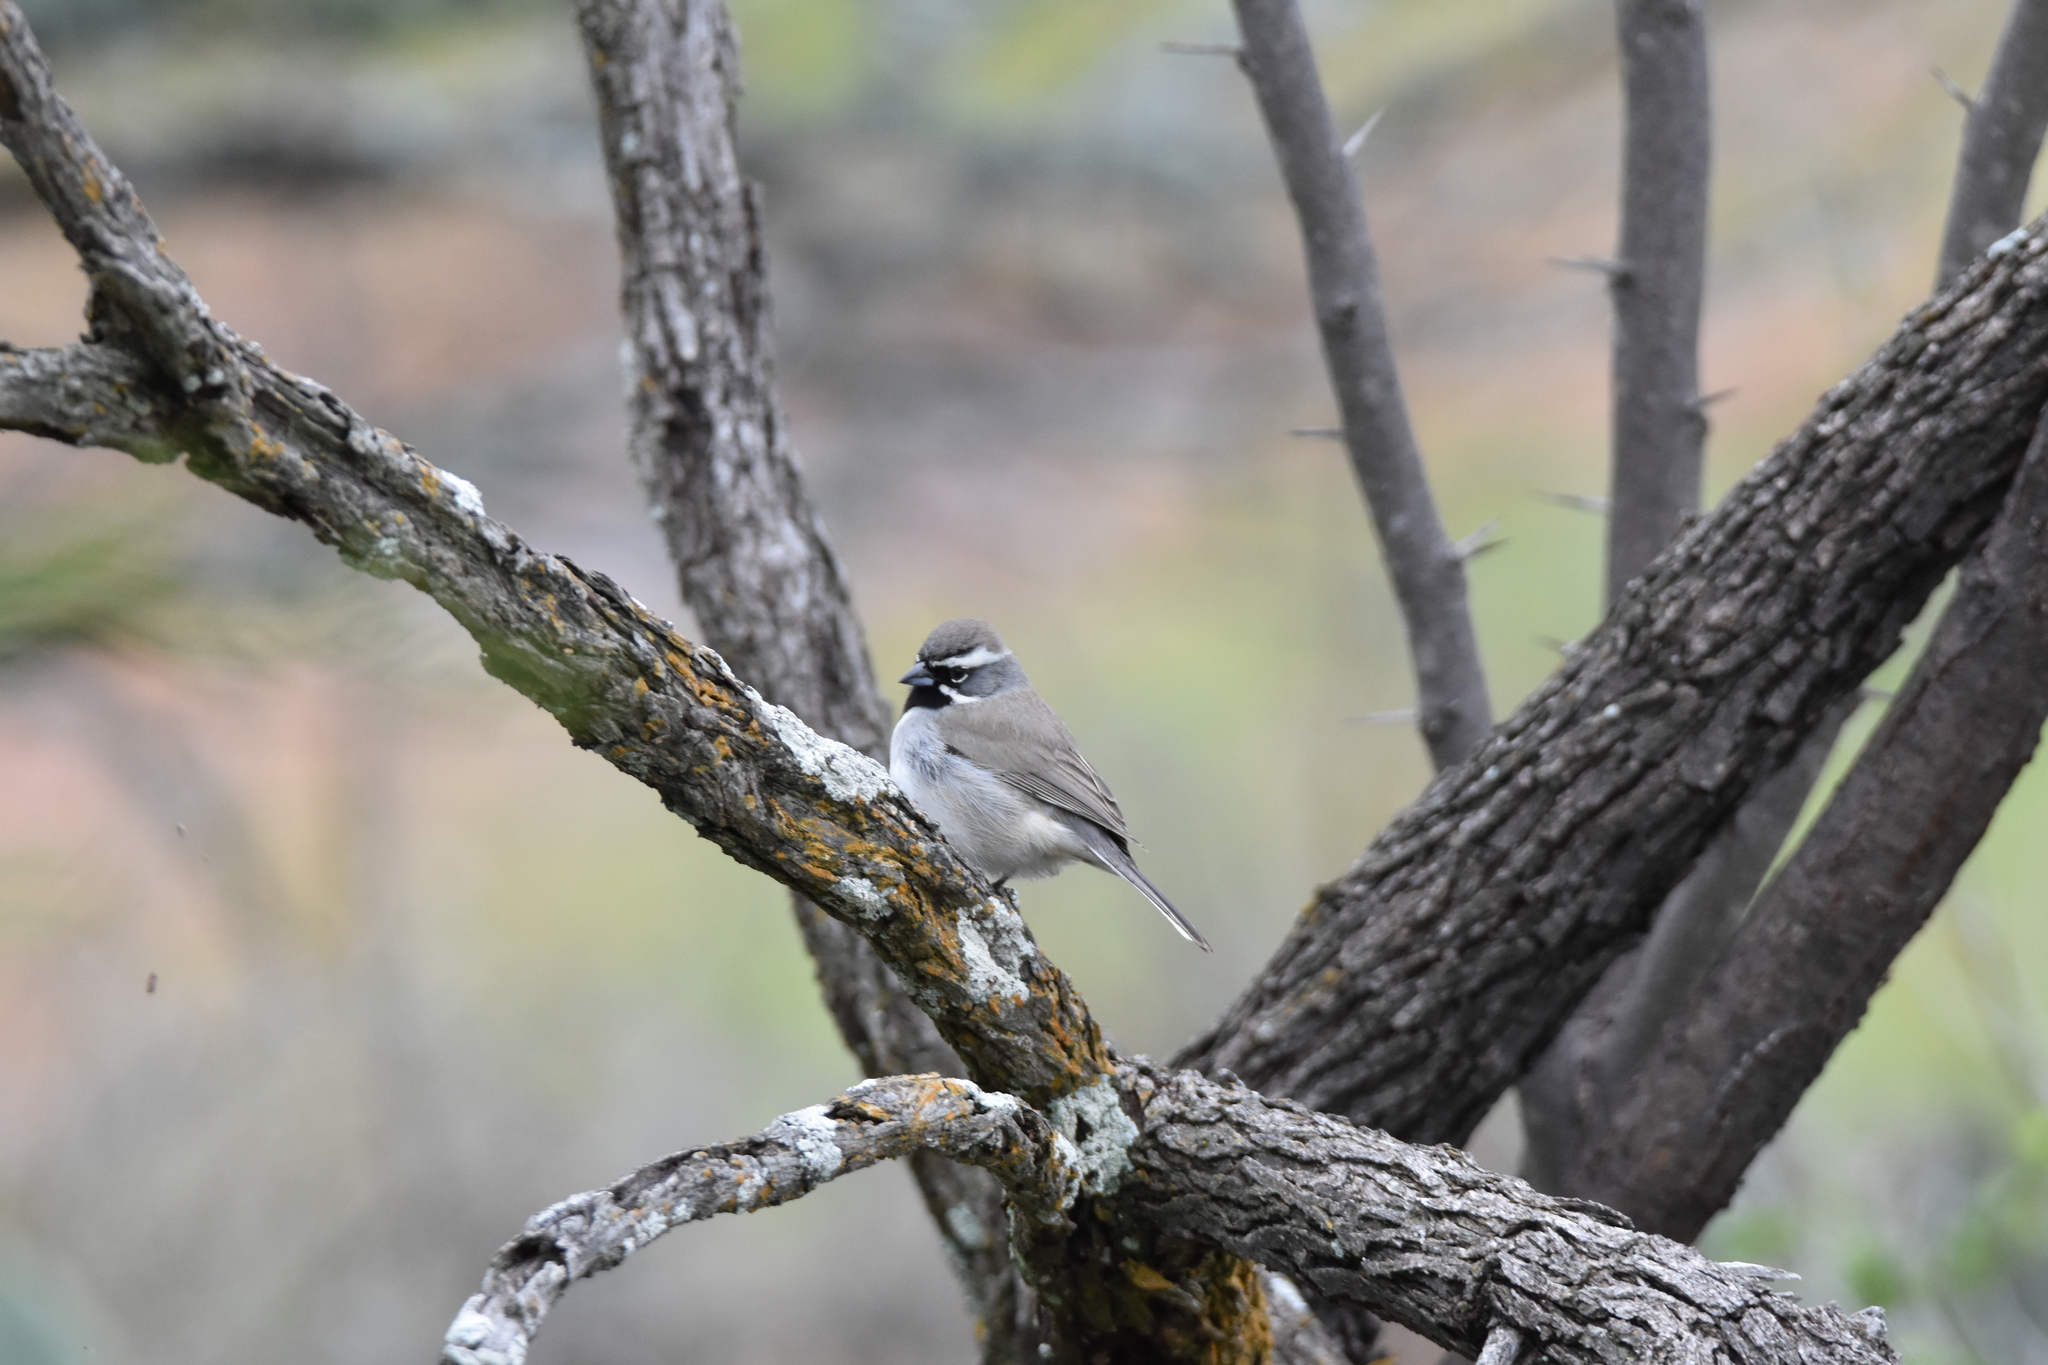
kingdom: Animalia
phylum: Chordata
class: Aves
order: Passeriformes
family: Passerellidae
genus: Amphispiza
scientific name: Amphispiza bilineata
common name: Black-throated sparrow
